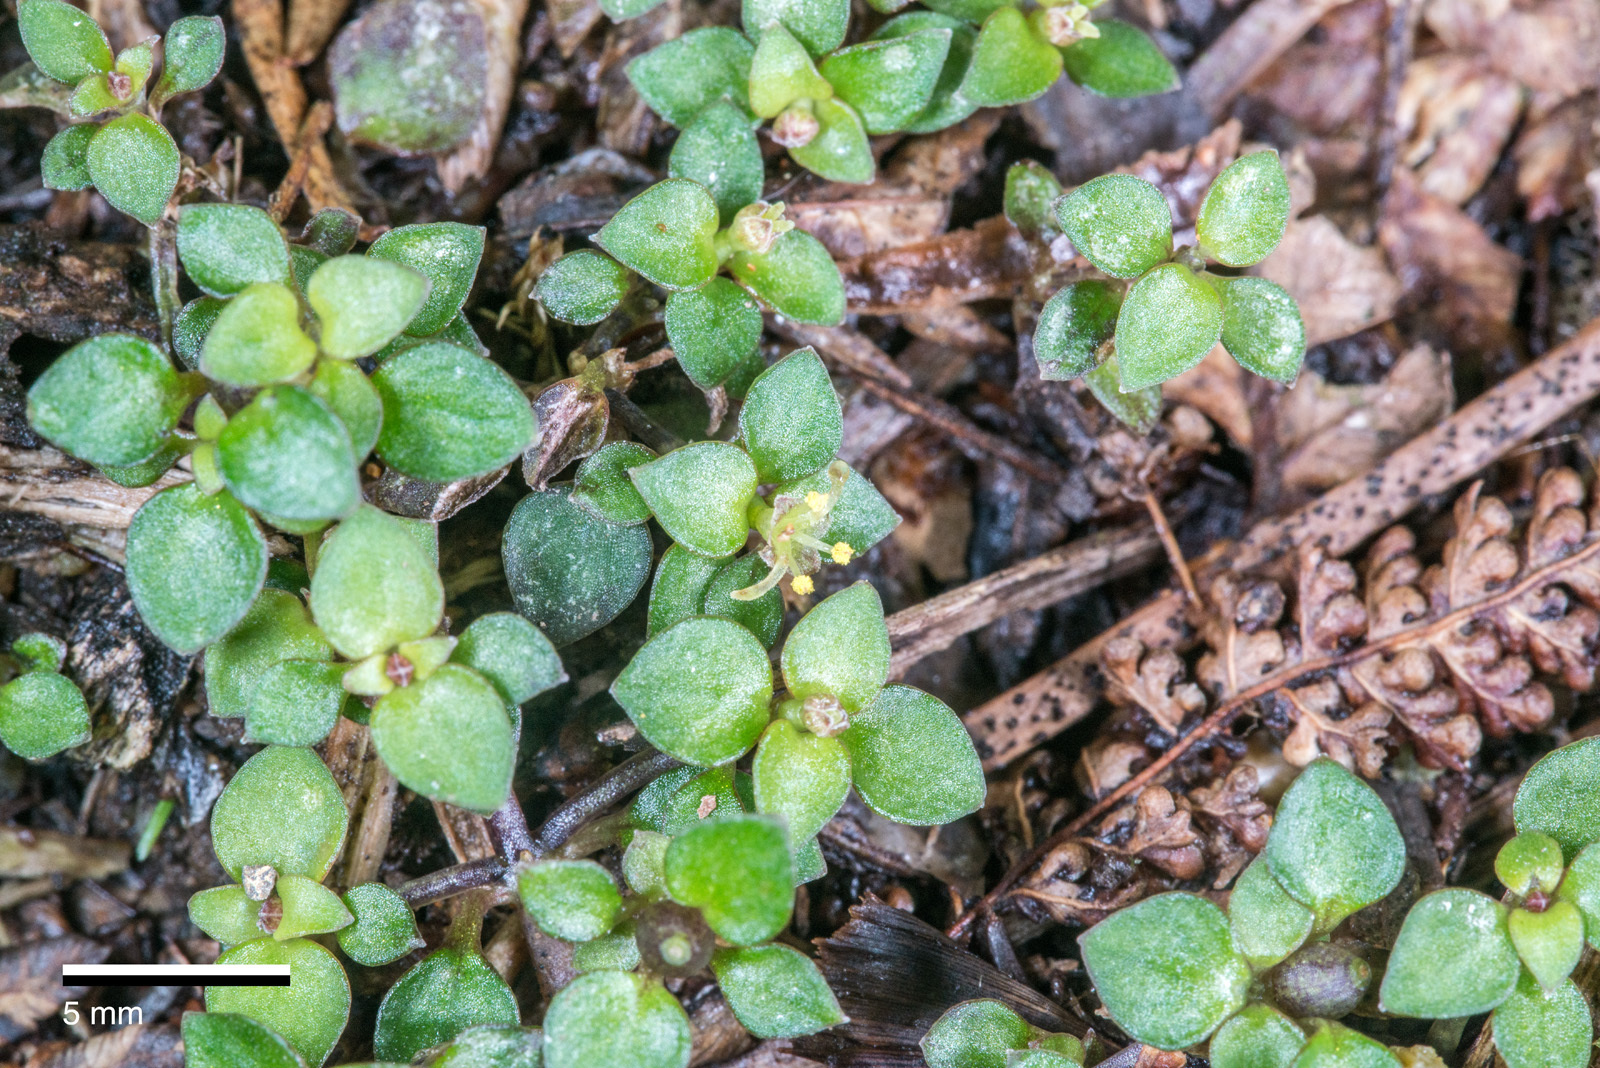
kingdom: Plantae
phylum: Tracheophyta
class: Magnoliopsida
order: Gentianales
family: Rubiaceae
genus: Nertera
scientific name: Nertera granadensis
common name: Beadplant
